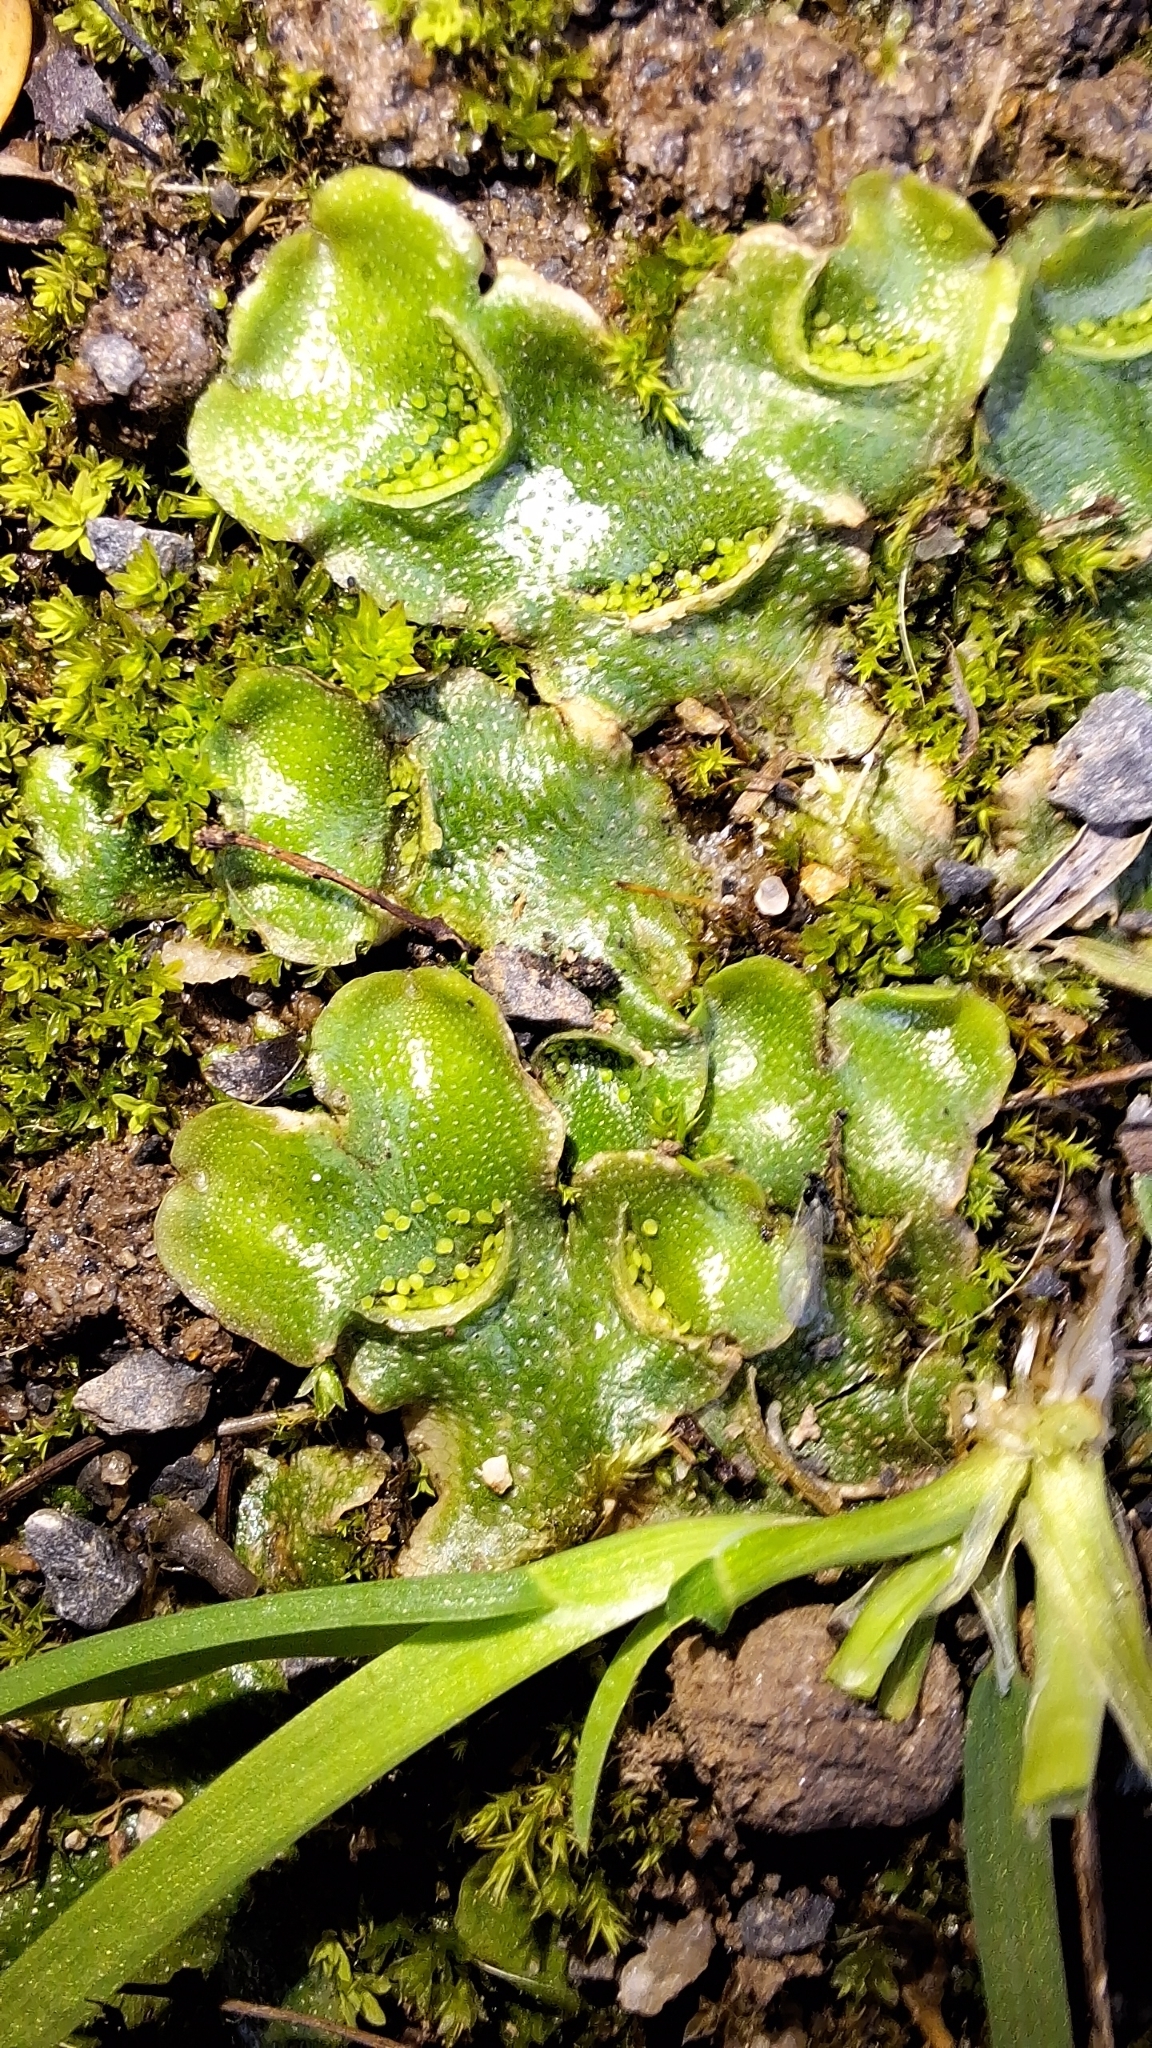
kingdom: Plantae
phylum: Marchantiophyta
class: Marchantiopsida
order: Lunulariales
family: Lunulariaceae
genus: Lunularia
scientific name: Lunularia cruciata
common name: Crescent-cup liverwort
